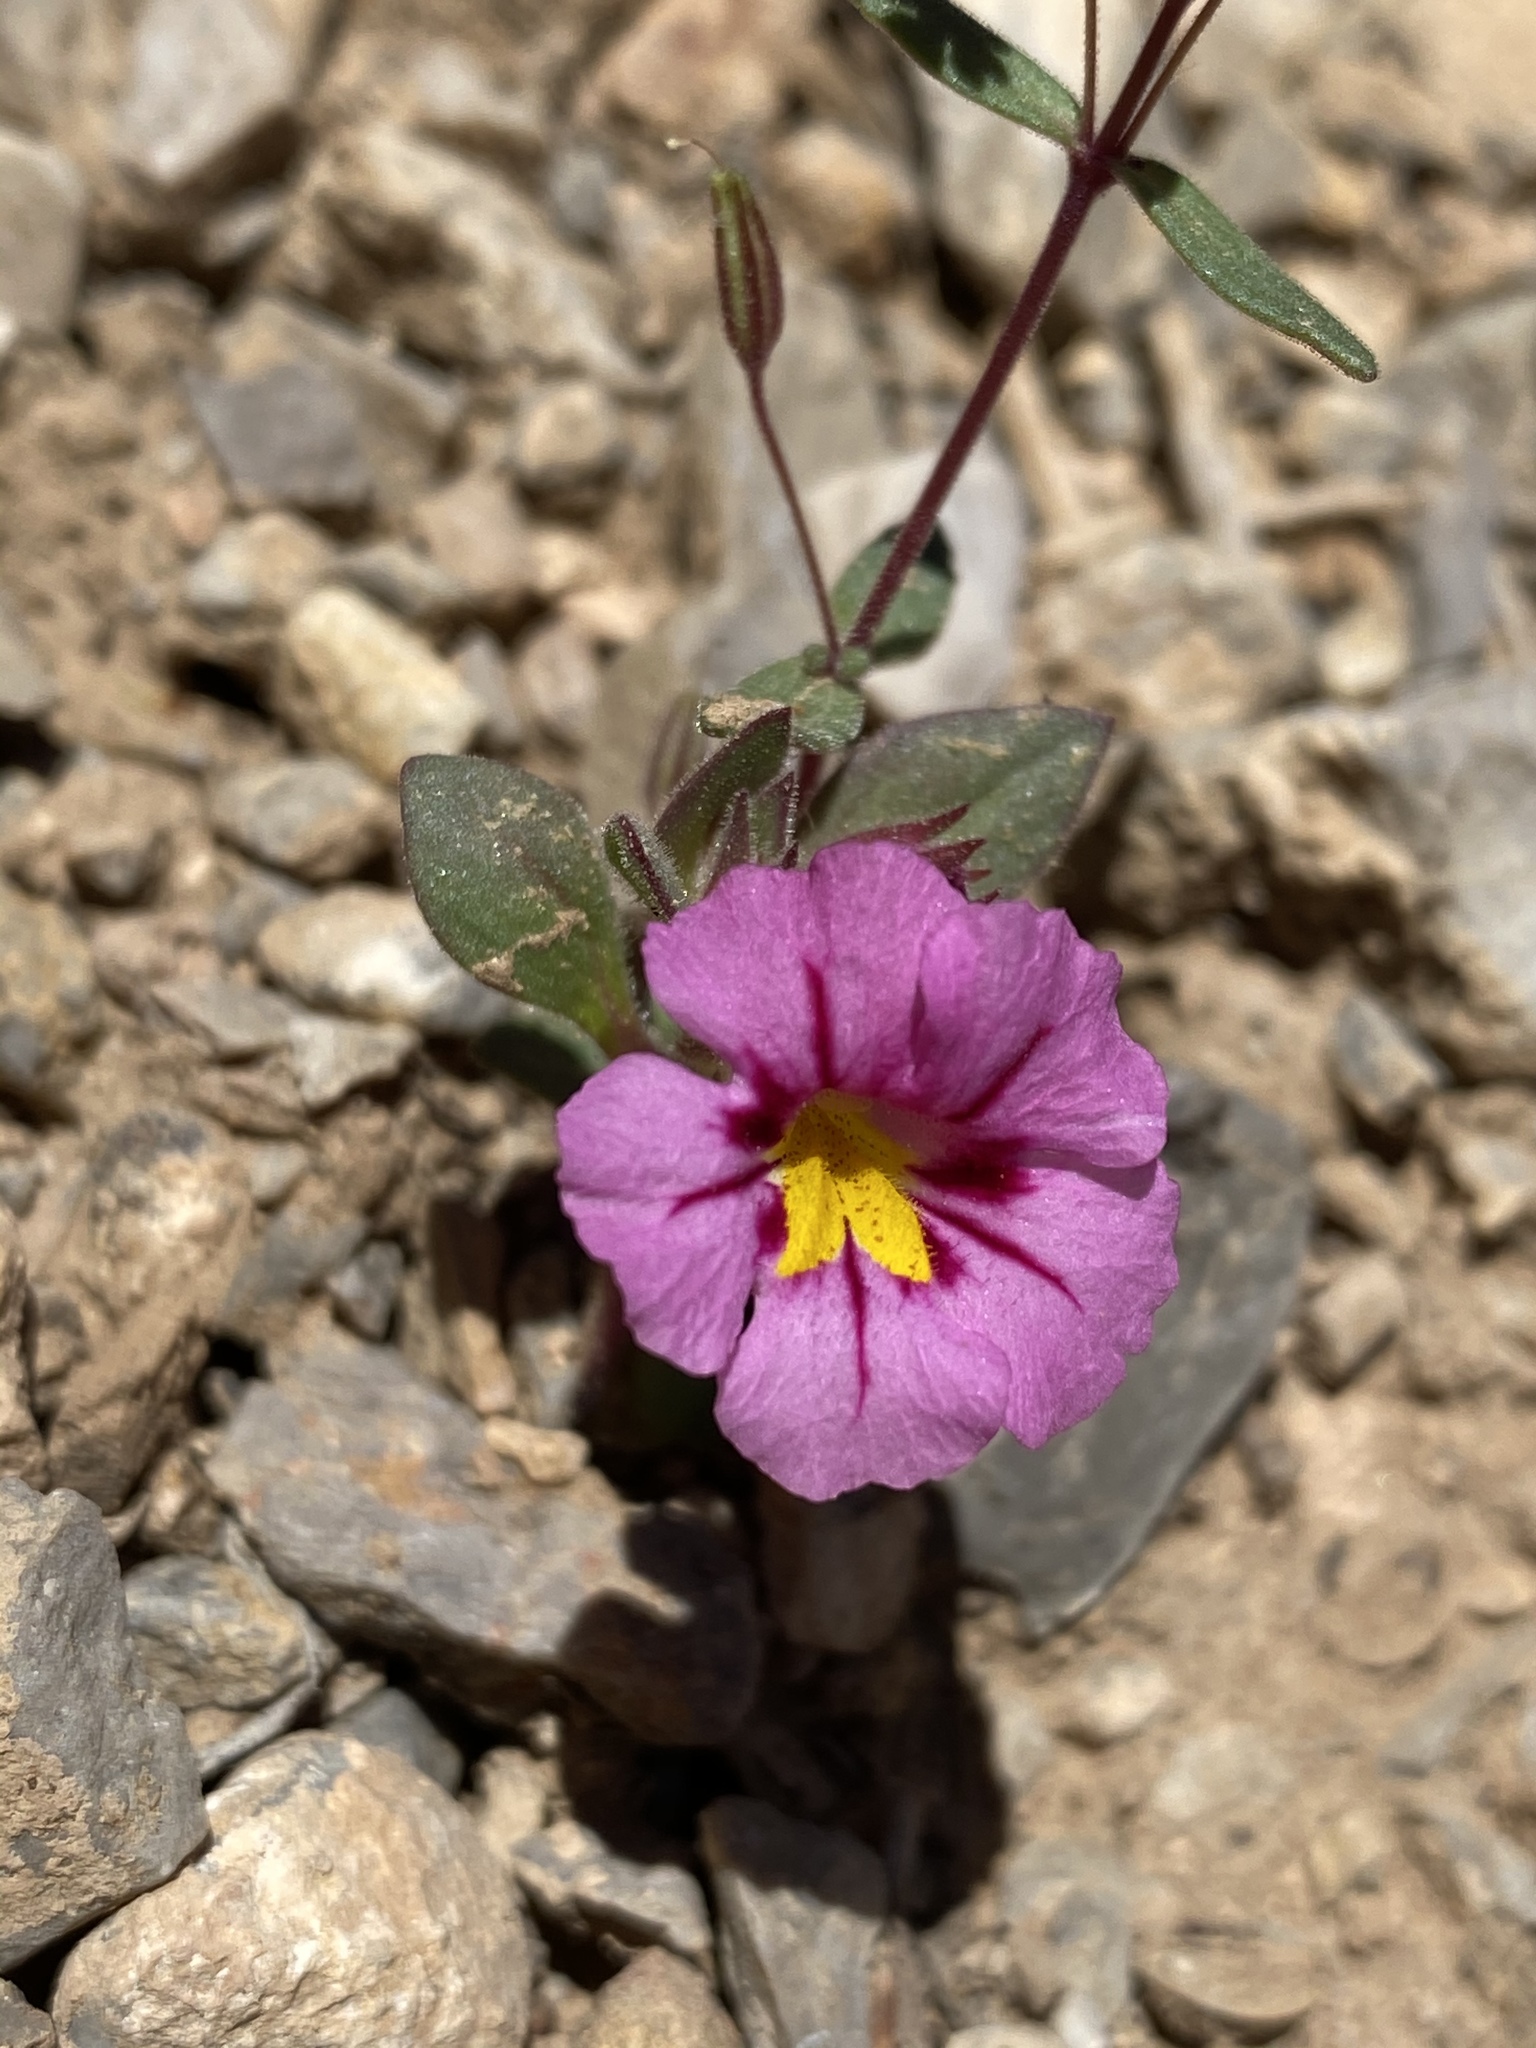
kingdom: Plantae
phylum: Tracheophyta
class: Magnoliopsida
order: Lamiales
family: Phrymaceae
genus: Diplacus
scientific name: Diplacus bigelovii
